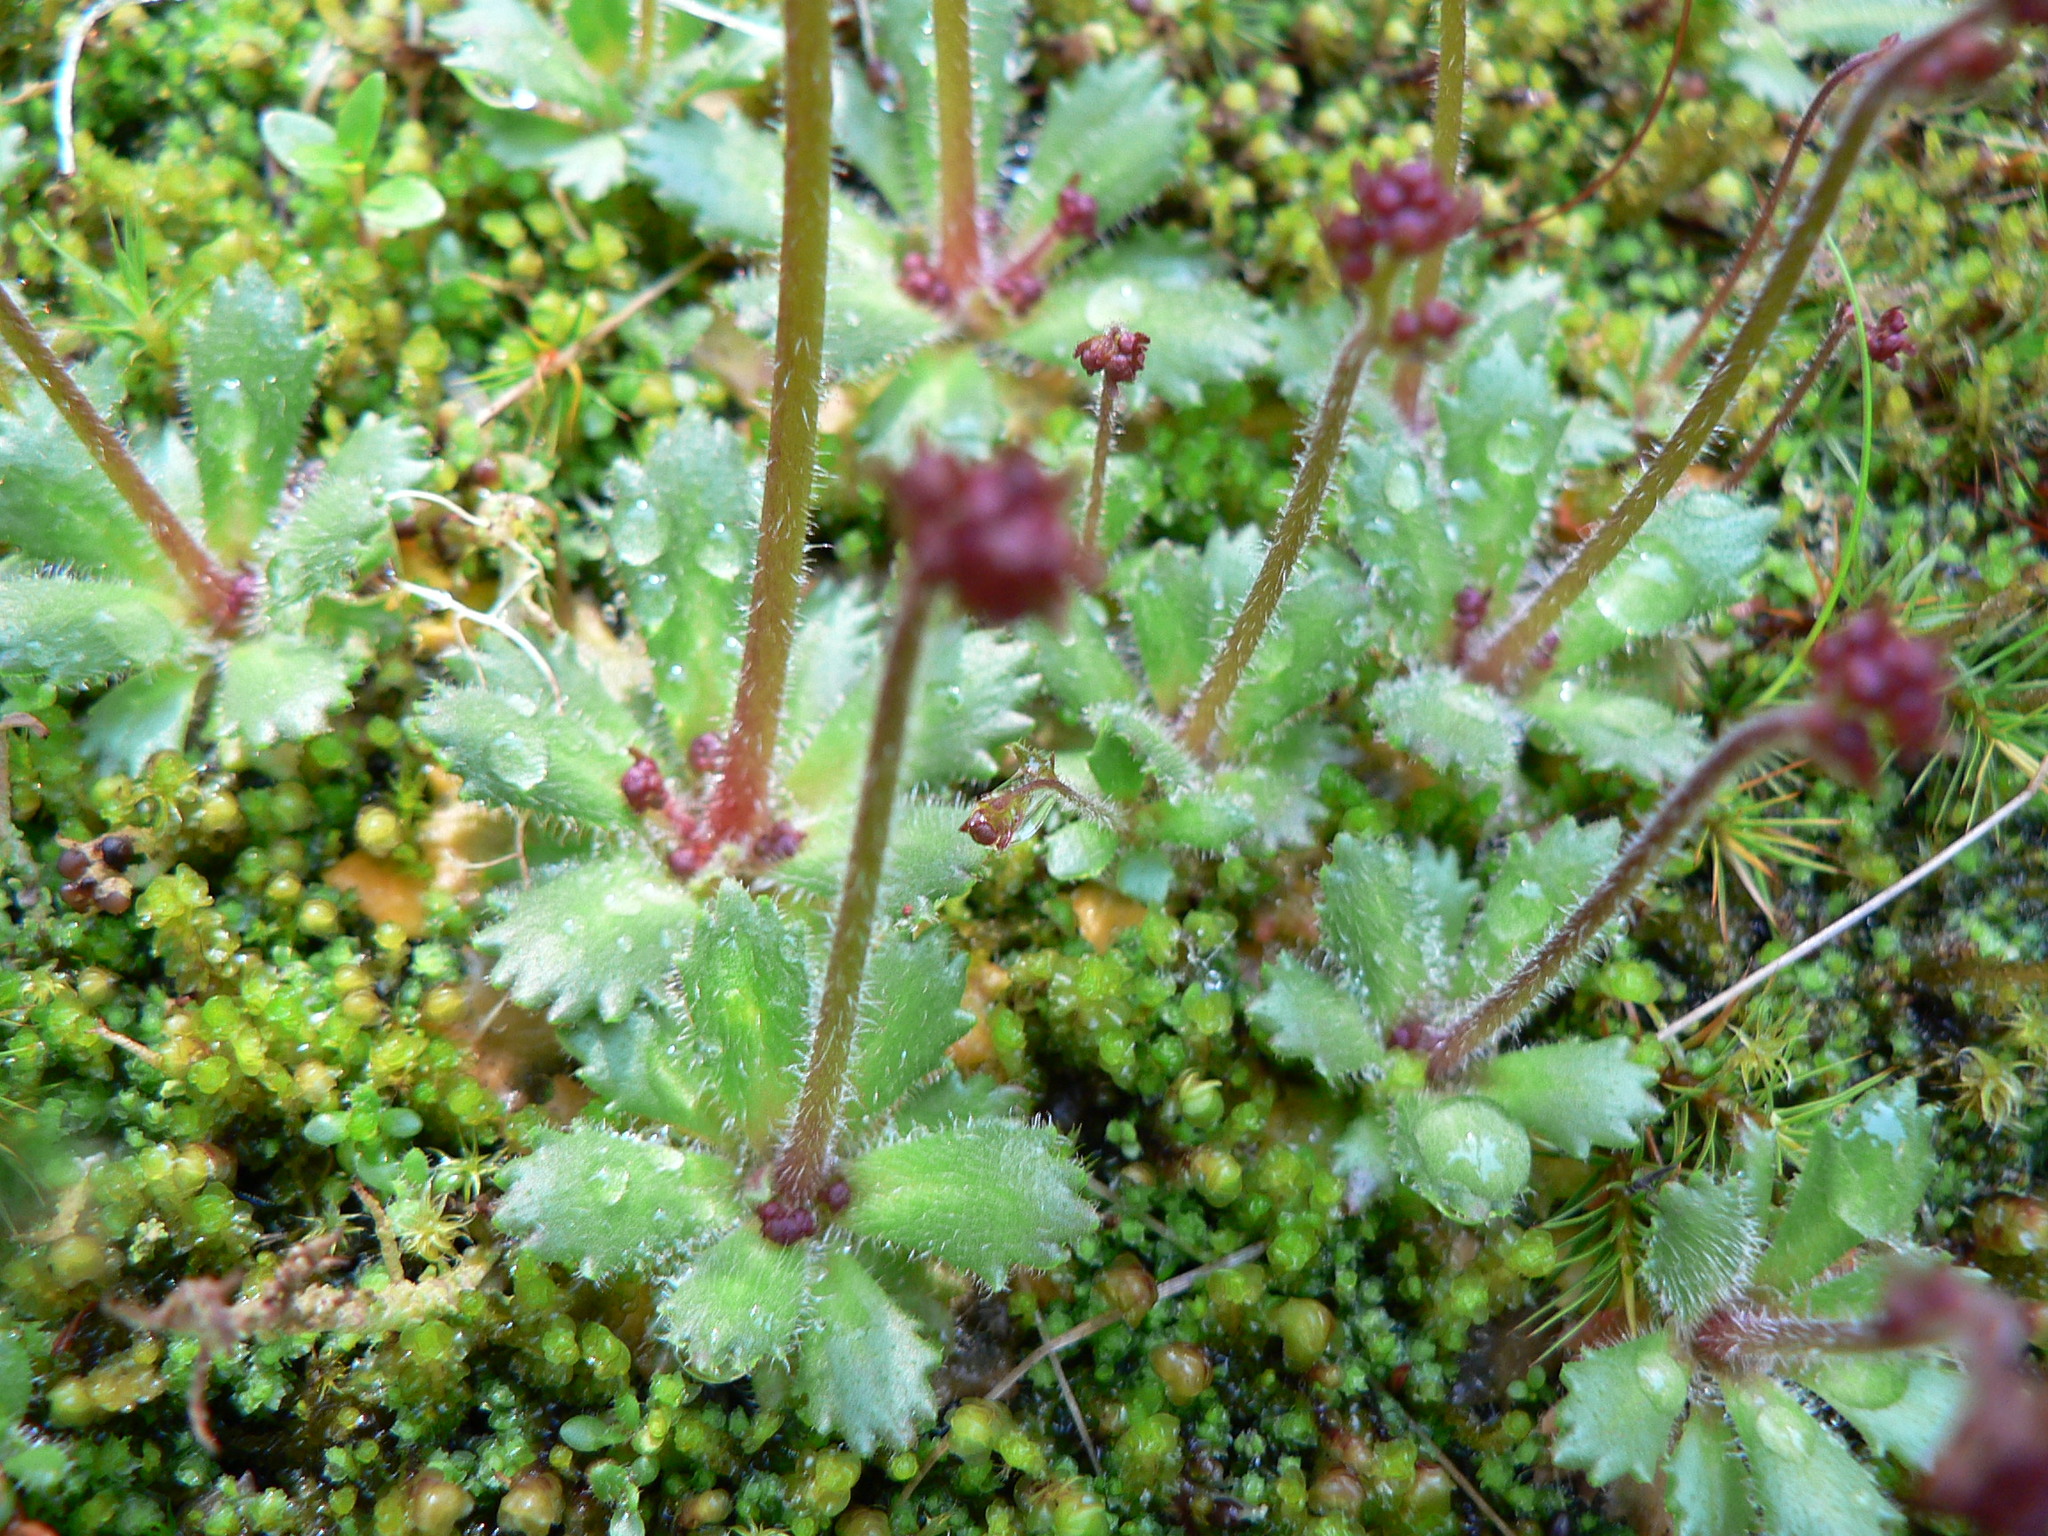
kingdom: Plantae
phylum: Tracheophyta
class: Magnoliopsida
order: Saxifragales
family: Saxifragaceae
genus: Micranthes
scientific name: Micranthes ferruginea
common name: Rusty saxifrage
